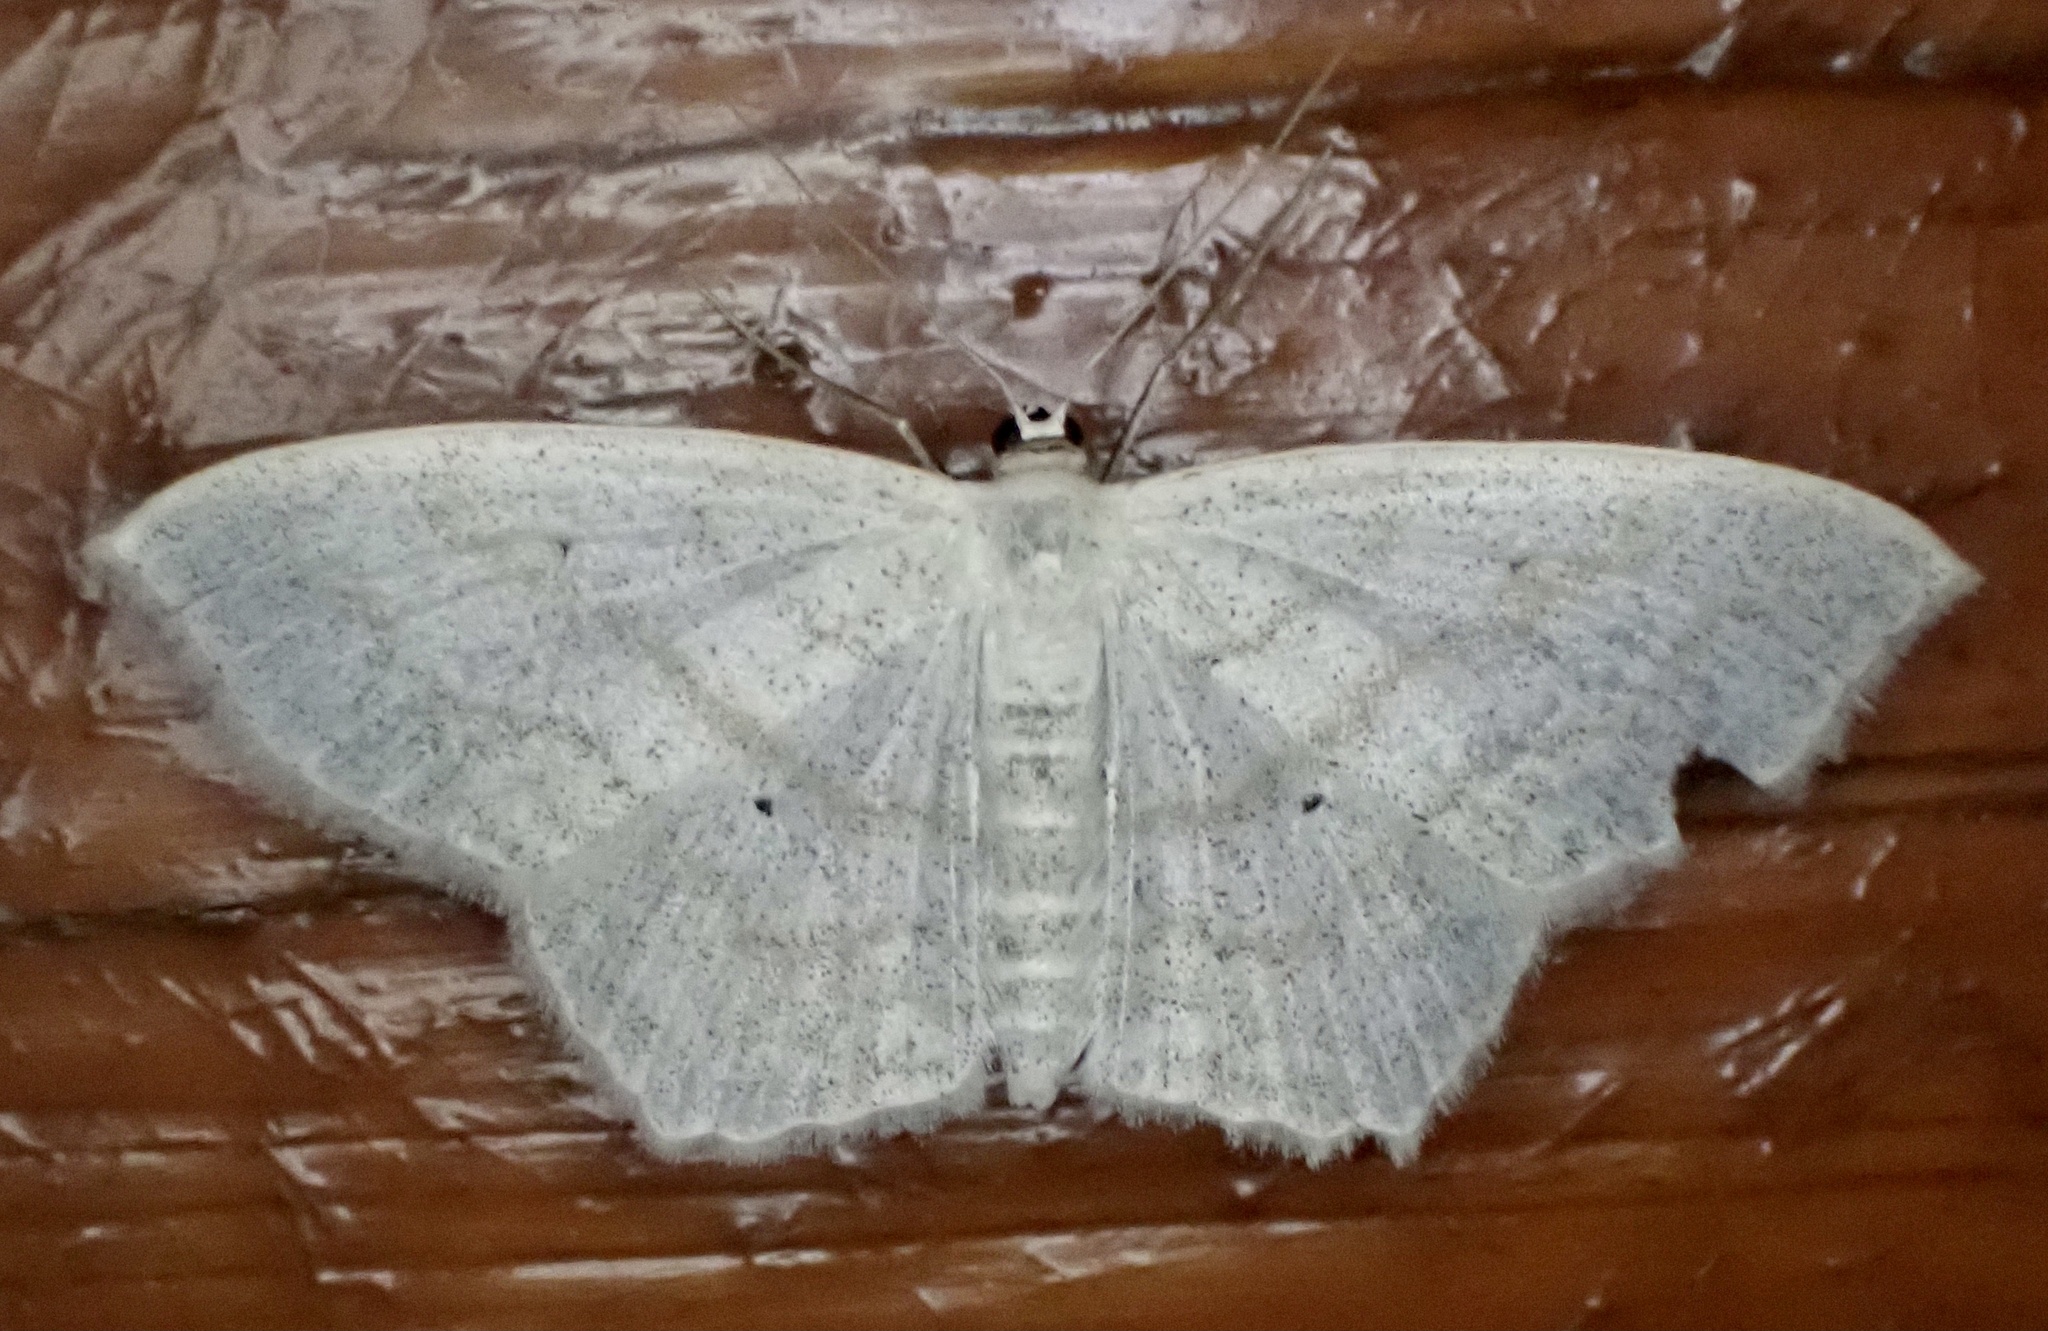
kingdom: Animalia
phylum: Arthropoda
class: Insecta
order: Lepidoptera
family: Geometridae
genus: Scopula
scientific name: Scopula limboundata
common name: Large lace border
